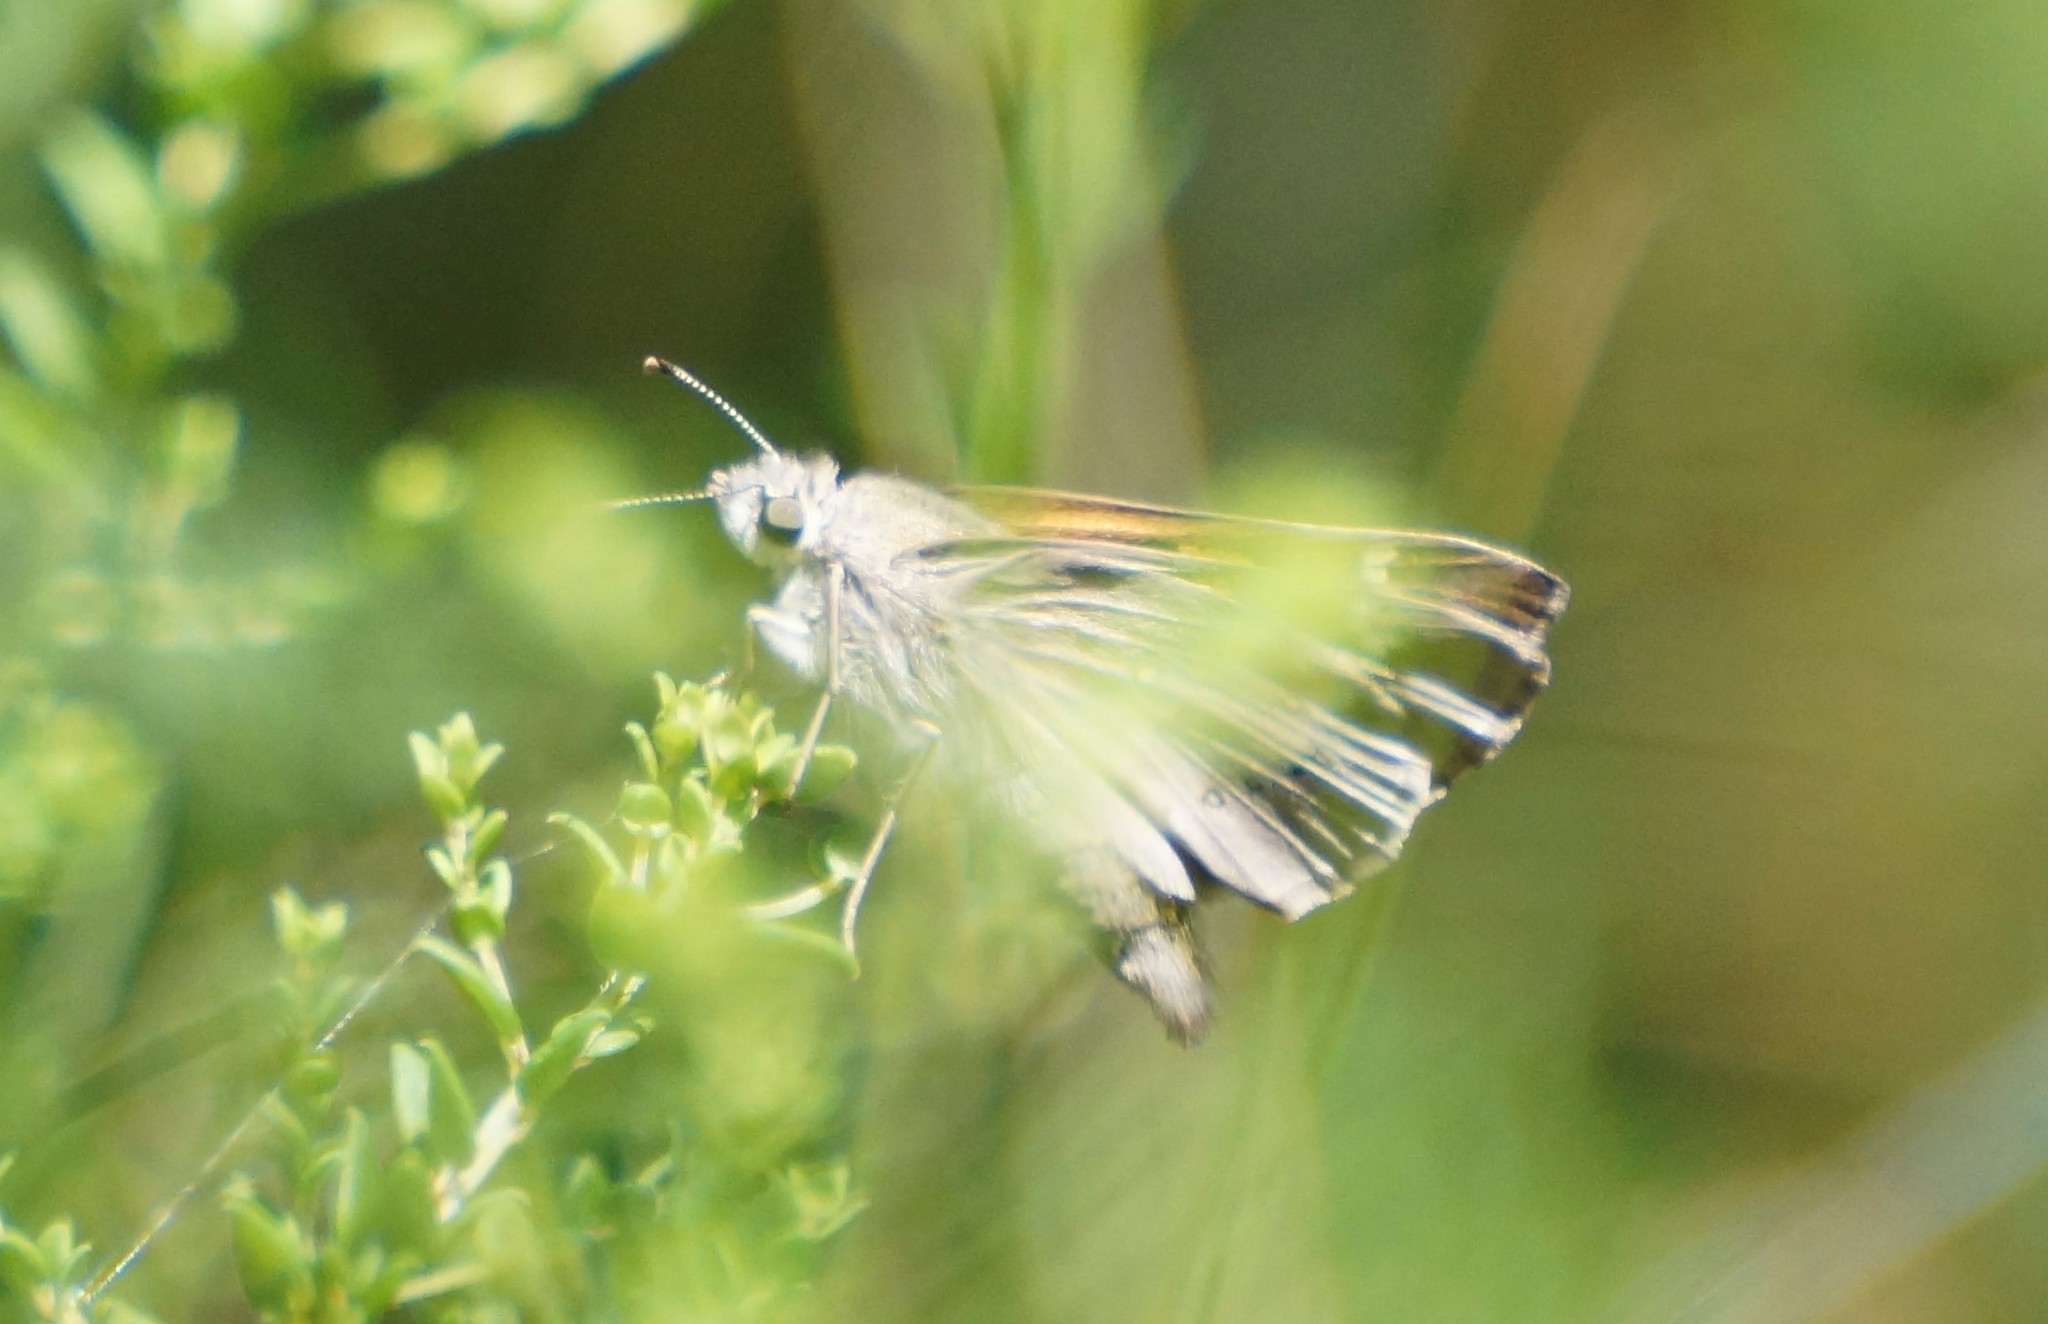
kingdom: Animalia
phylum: Arthropoda
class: Insecta
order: Lepidoptera
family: Hesperiidae
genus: Hesperilla
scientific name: Hesperilla donnysa
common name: Varied sedge-skipper
